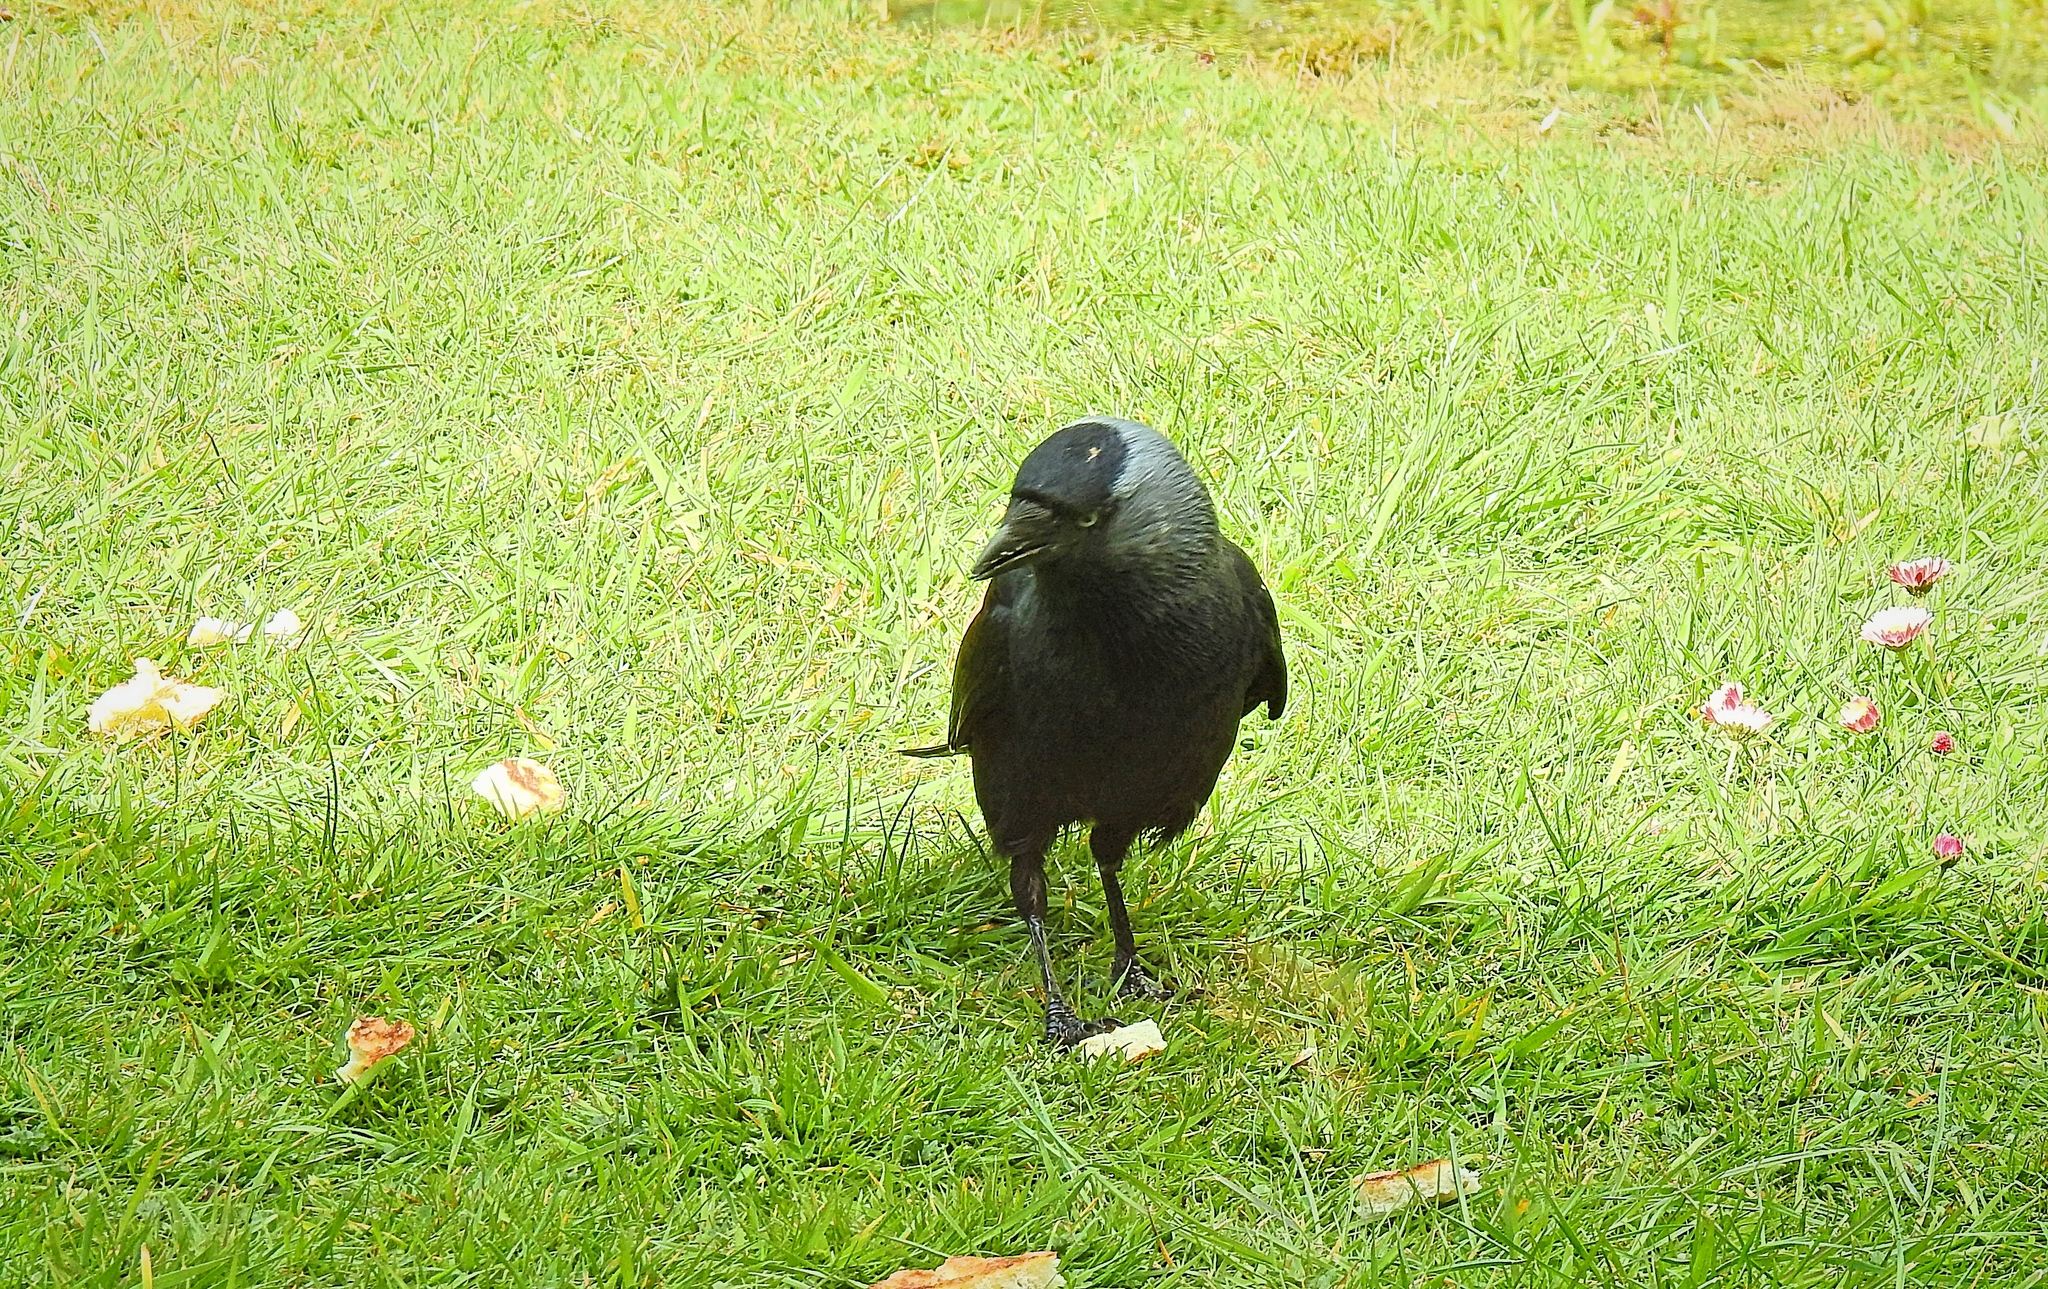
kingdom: Animalia
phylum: Chordata
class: Aves
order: Passeriformes
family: Corvidae
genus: Coloeus
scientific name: Coloeus monedula
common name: Western jackdaw
